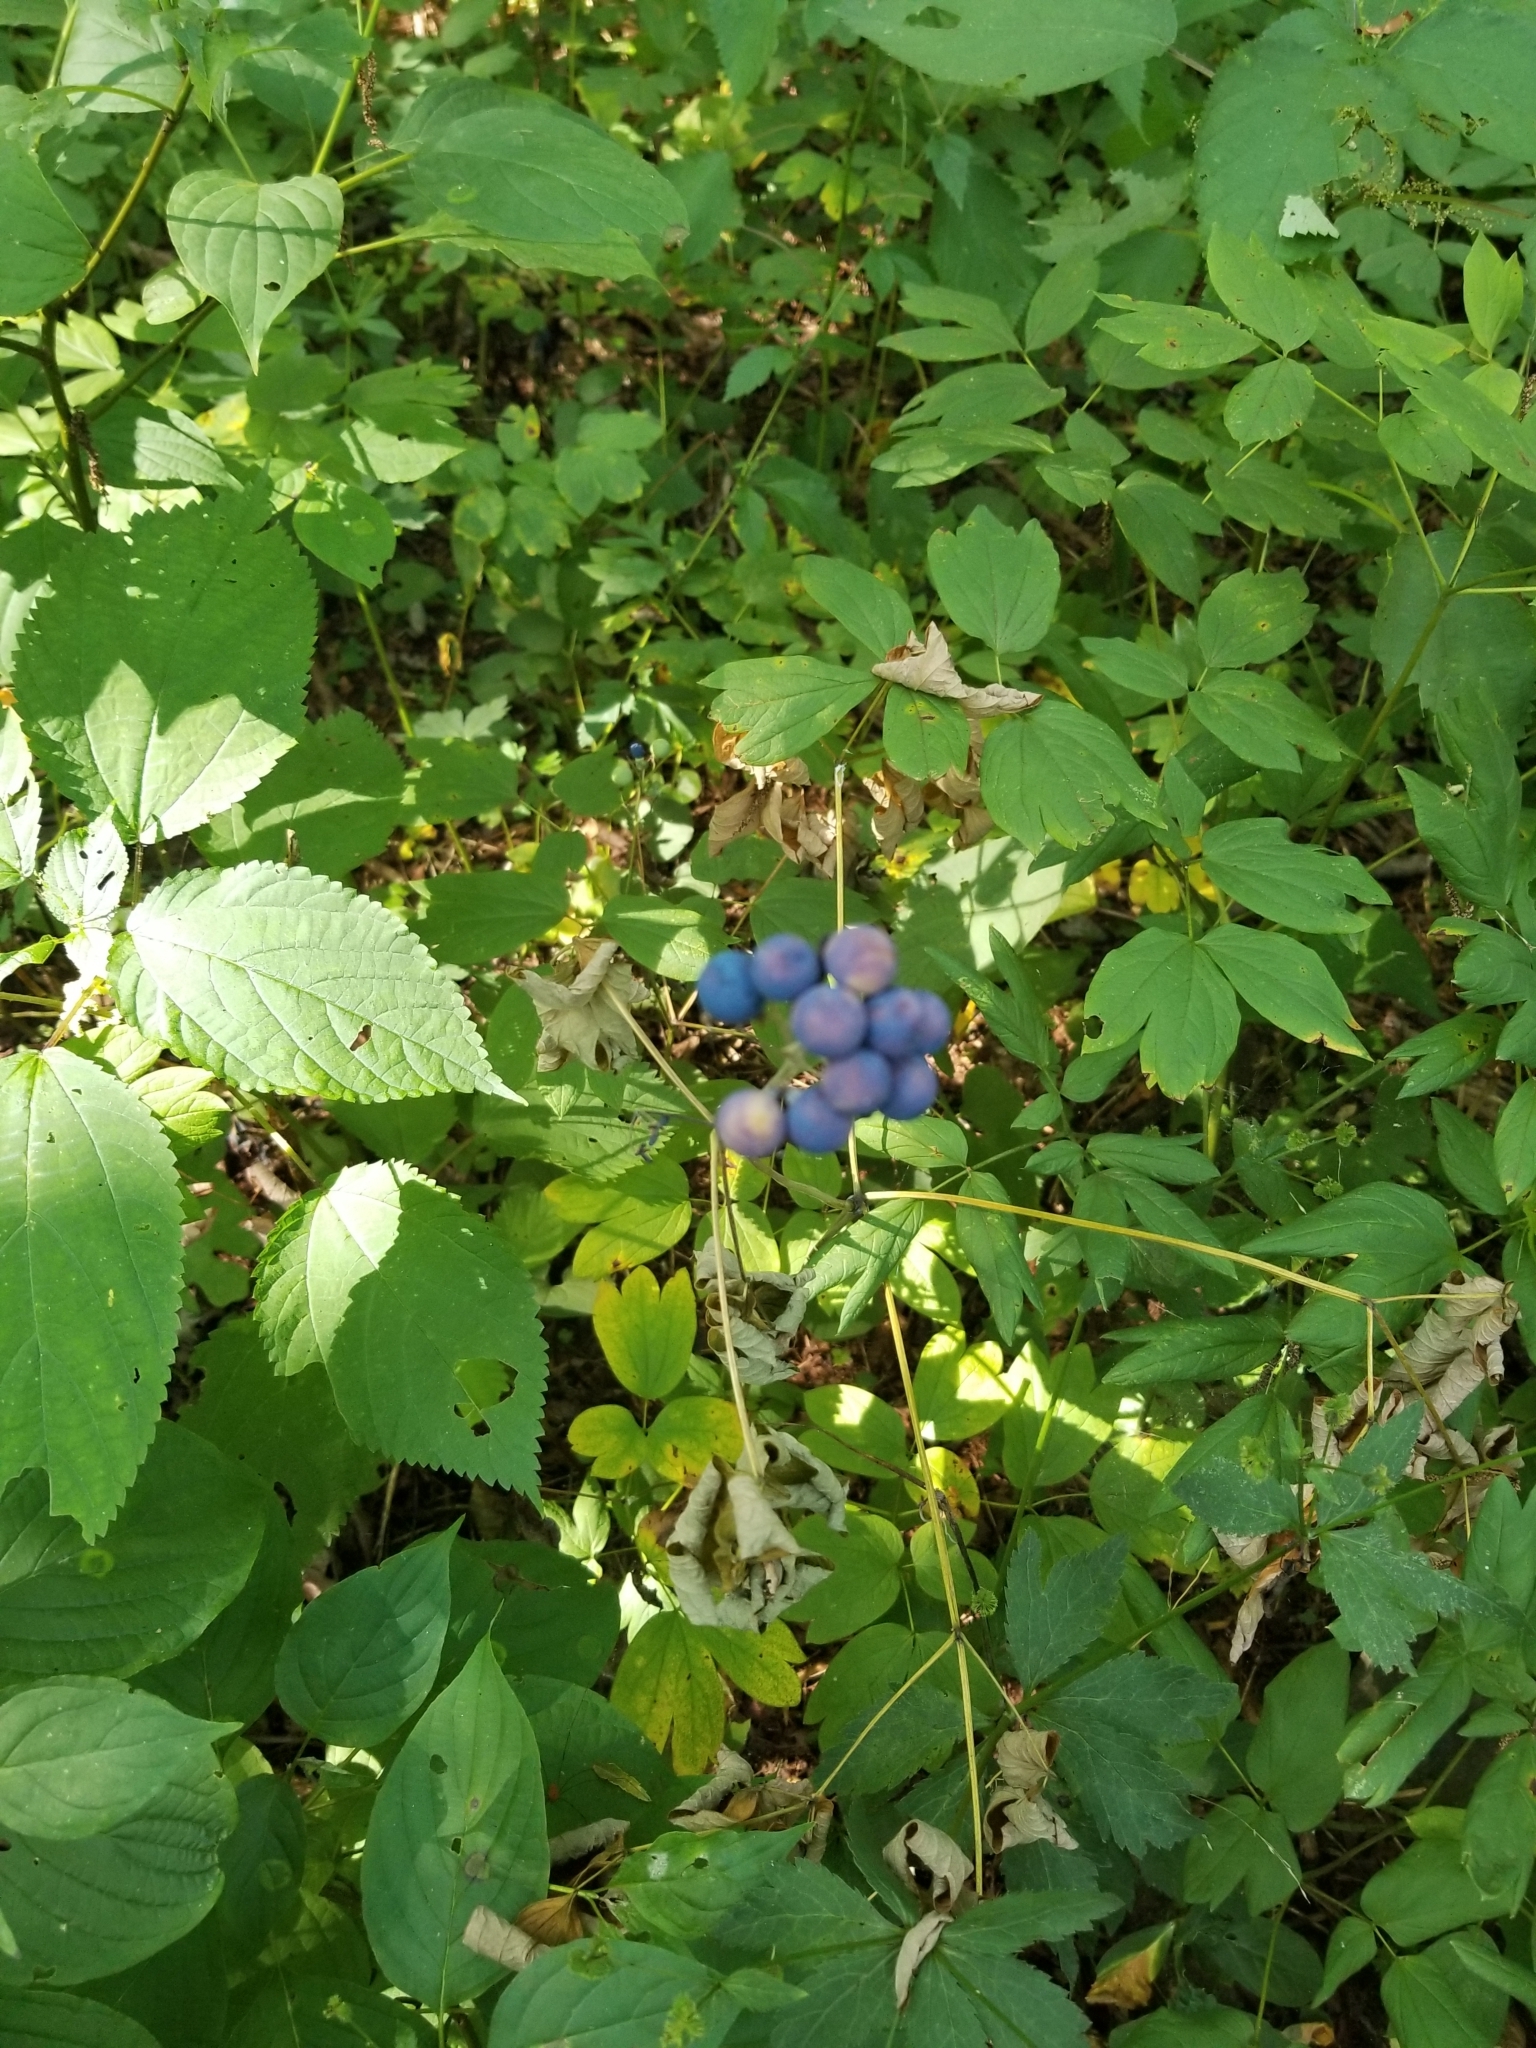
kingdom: Plantae
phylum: Tracheophyta
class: Magnoliopsida
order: Ranunculales
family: Berberidaceae
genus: Caulophyllum
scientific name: Caulophyllum thalictroides
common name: Blue cohosh
